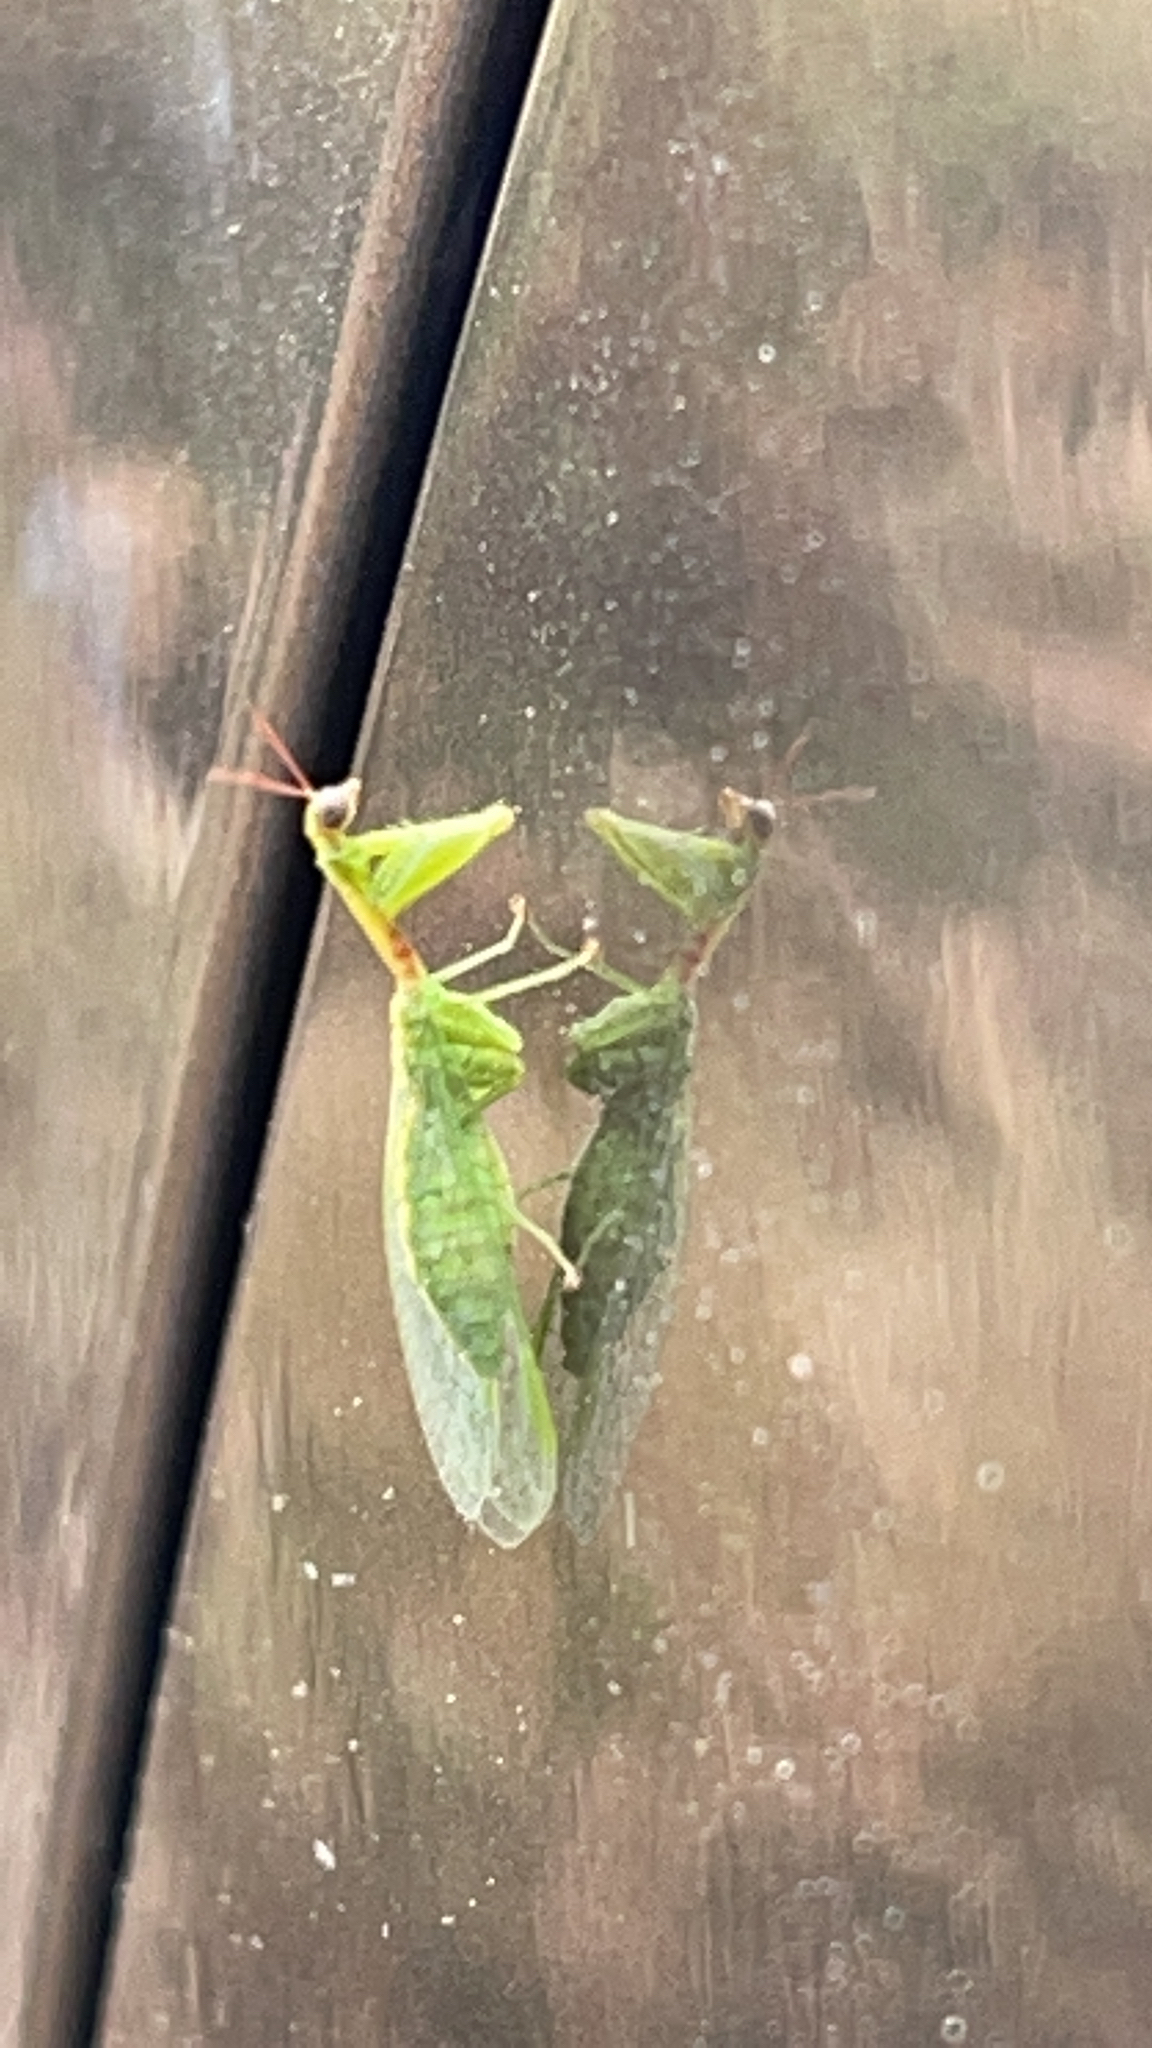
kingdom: Animalia
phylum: Arthropoda
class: Insecta
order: Neuroptera
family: Mantispidae
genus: Zeugomantispa
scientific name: Zeugomantispa minuta
